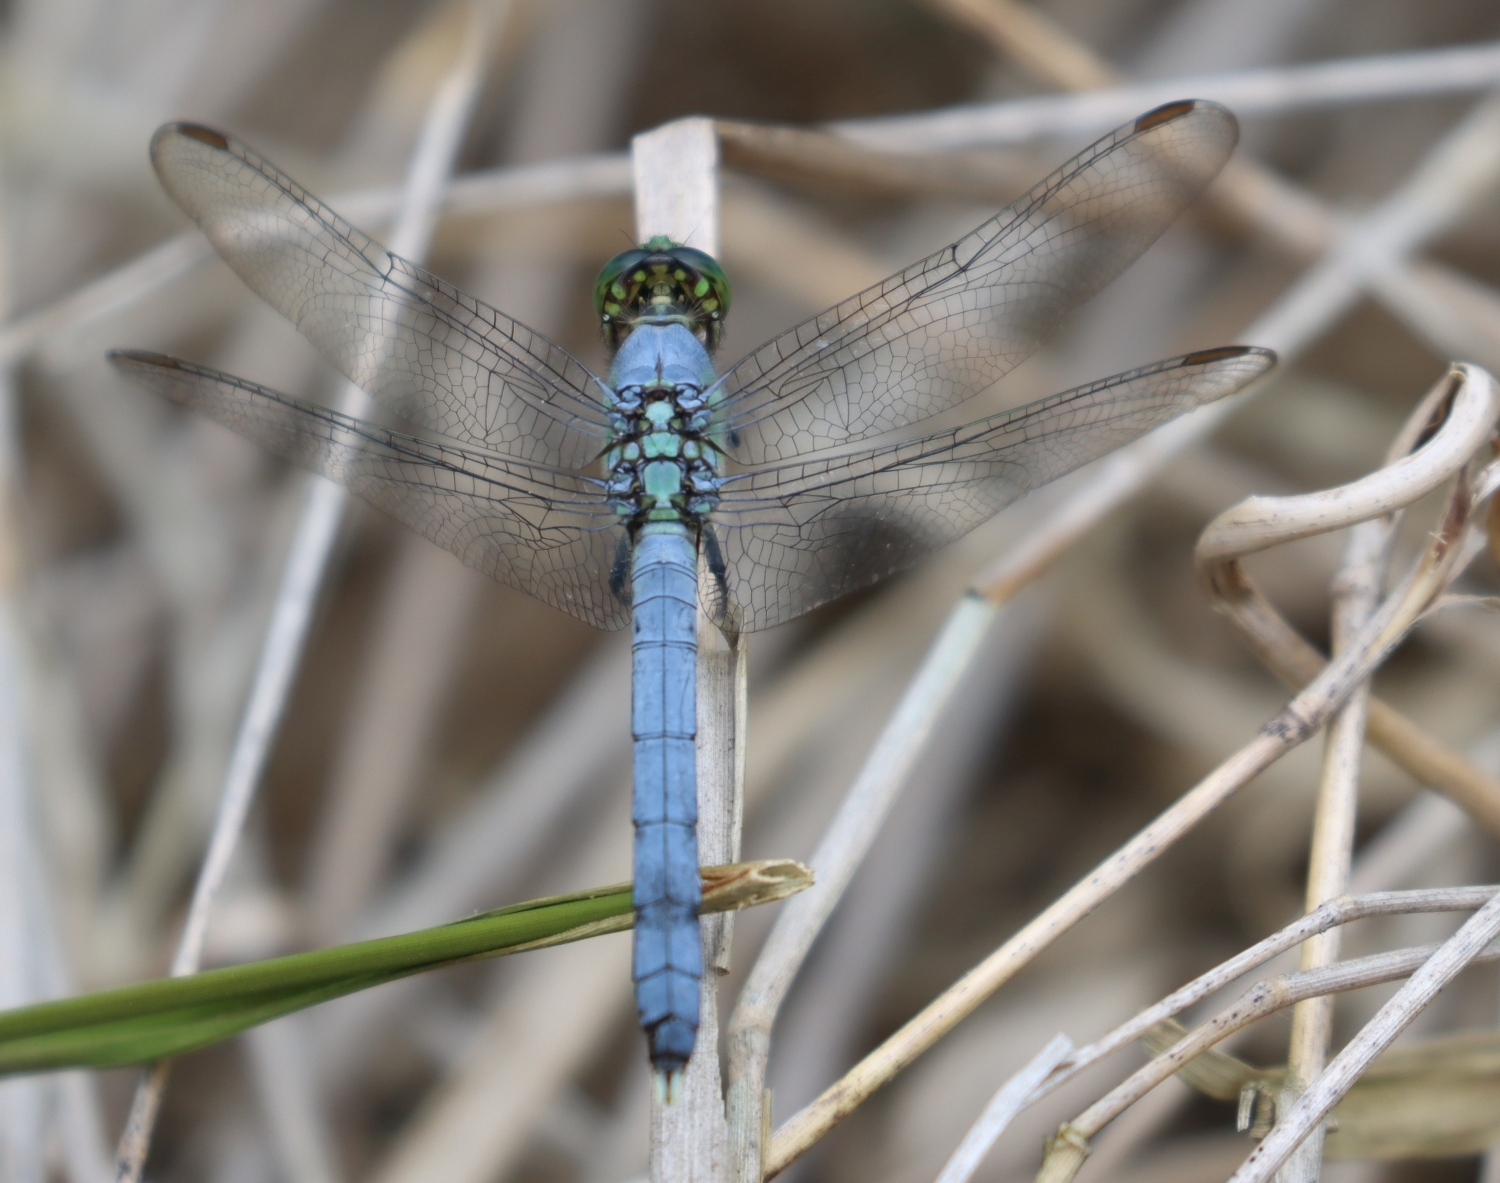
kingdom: Animalia
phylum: Arthropoda
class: Insecta
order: Odonata
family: Libellulidae
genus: Erythemis
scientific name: Erythemis simplicicollis
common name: Eastern pondhawk
